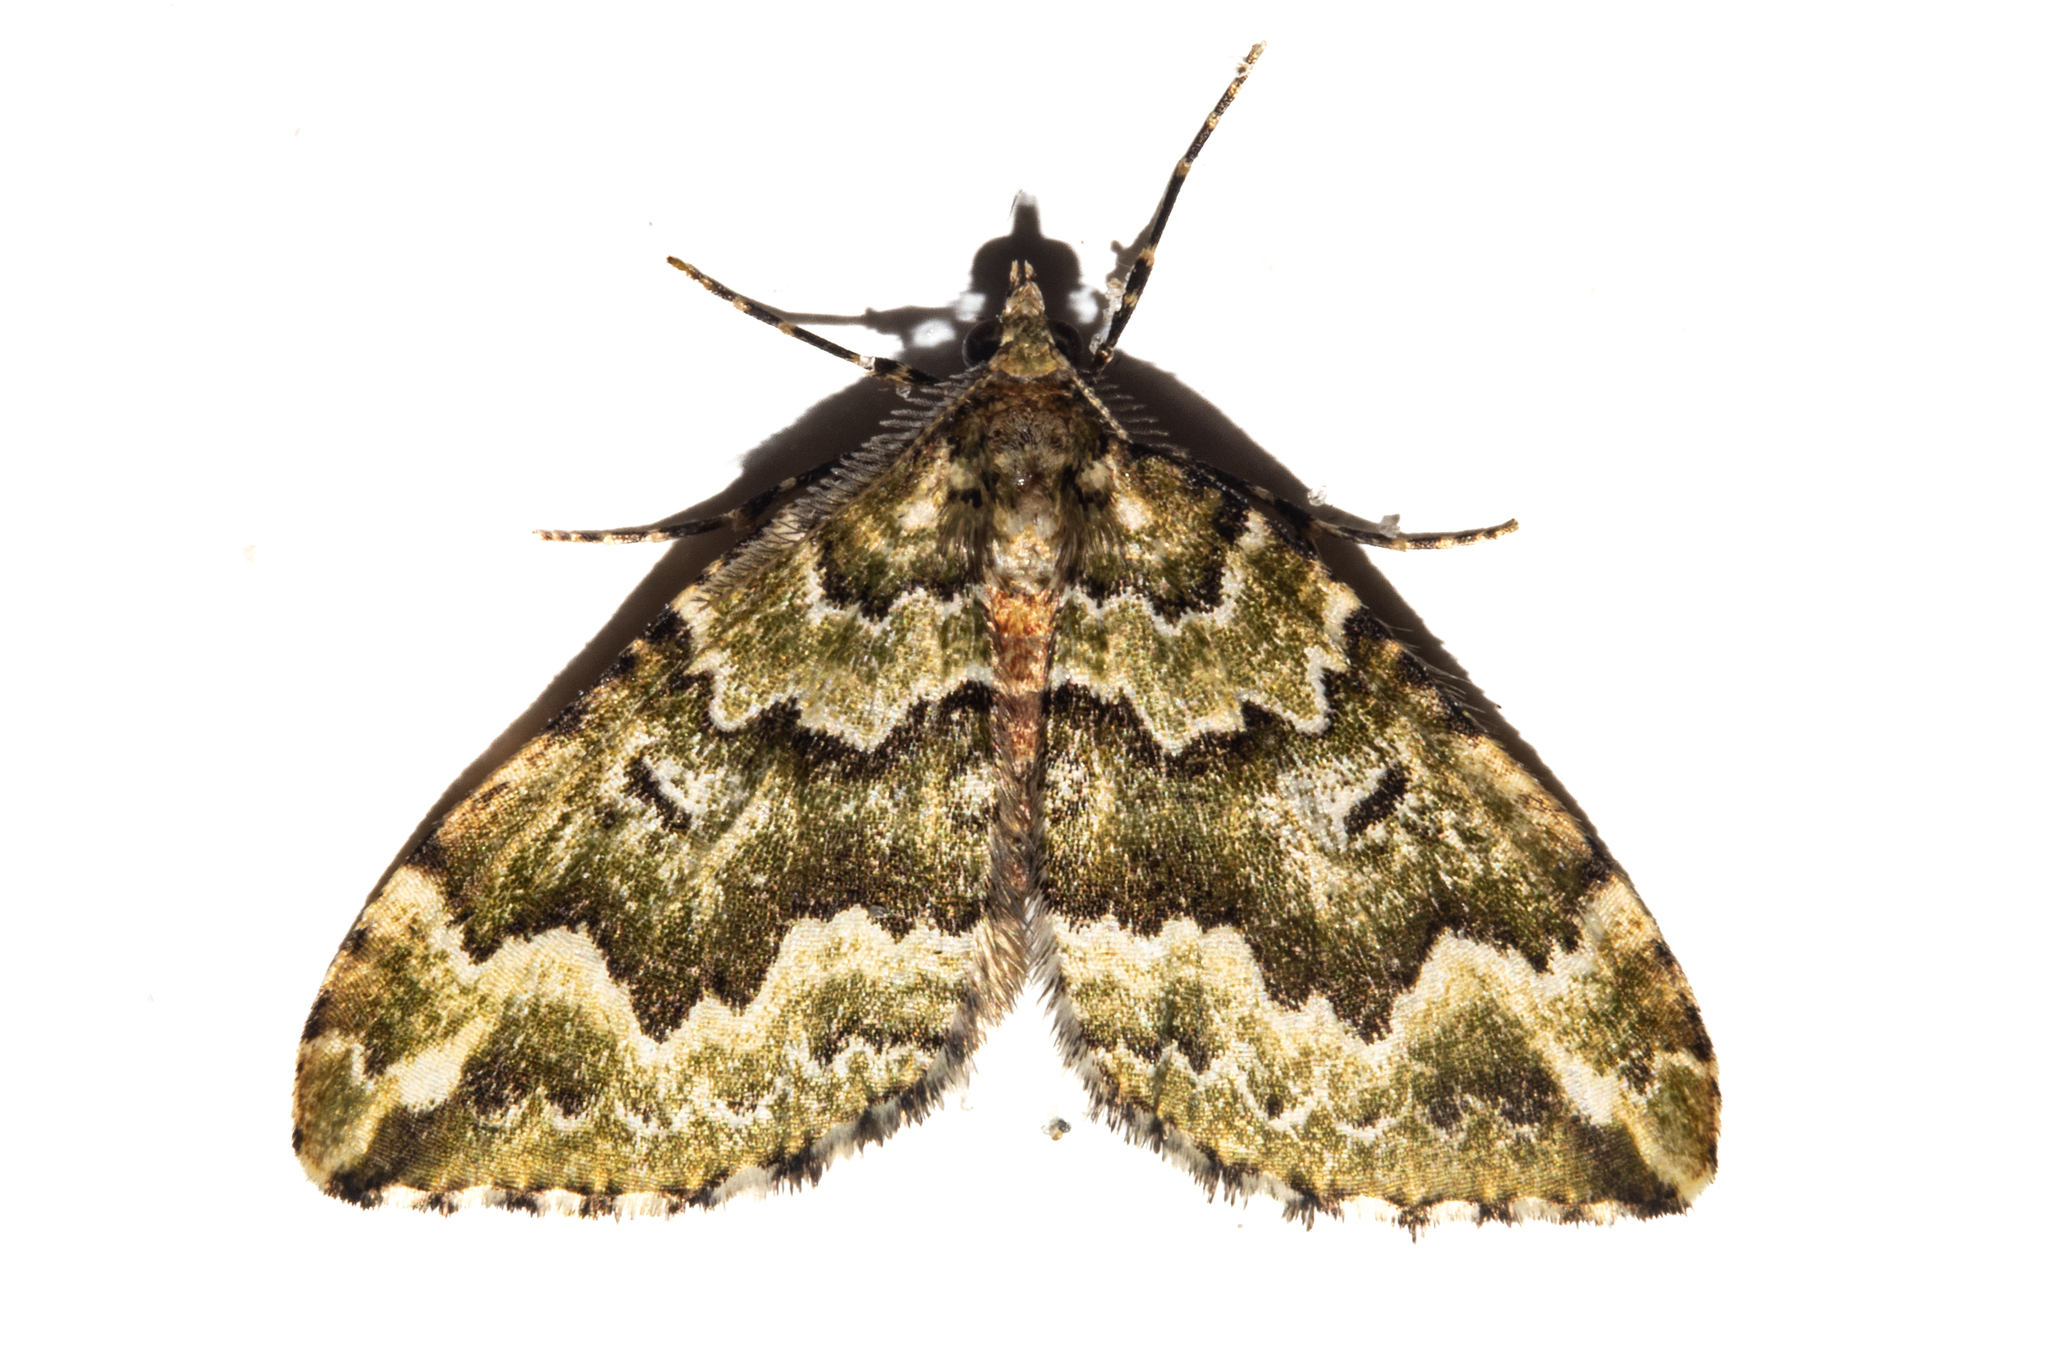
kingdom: Animalia
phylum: Arthropoda
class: Insecta
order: Lepidoptera
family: Geometridae
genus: Asaphodes
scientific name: Asaphodes beata
